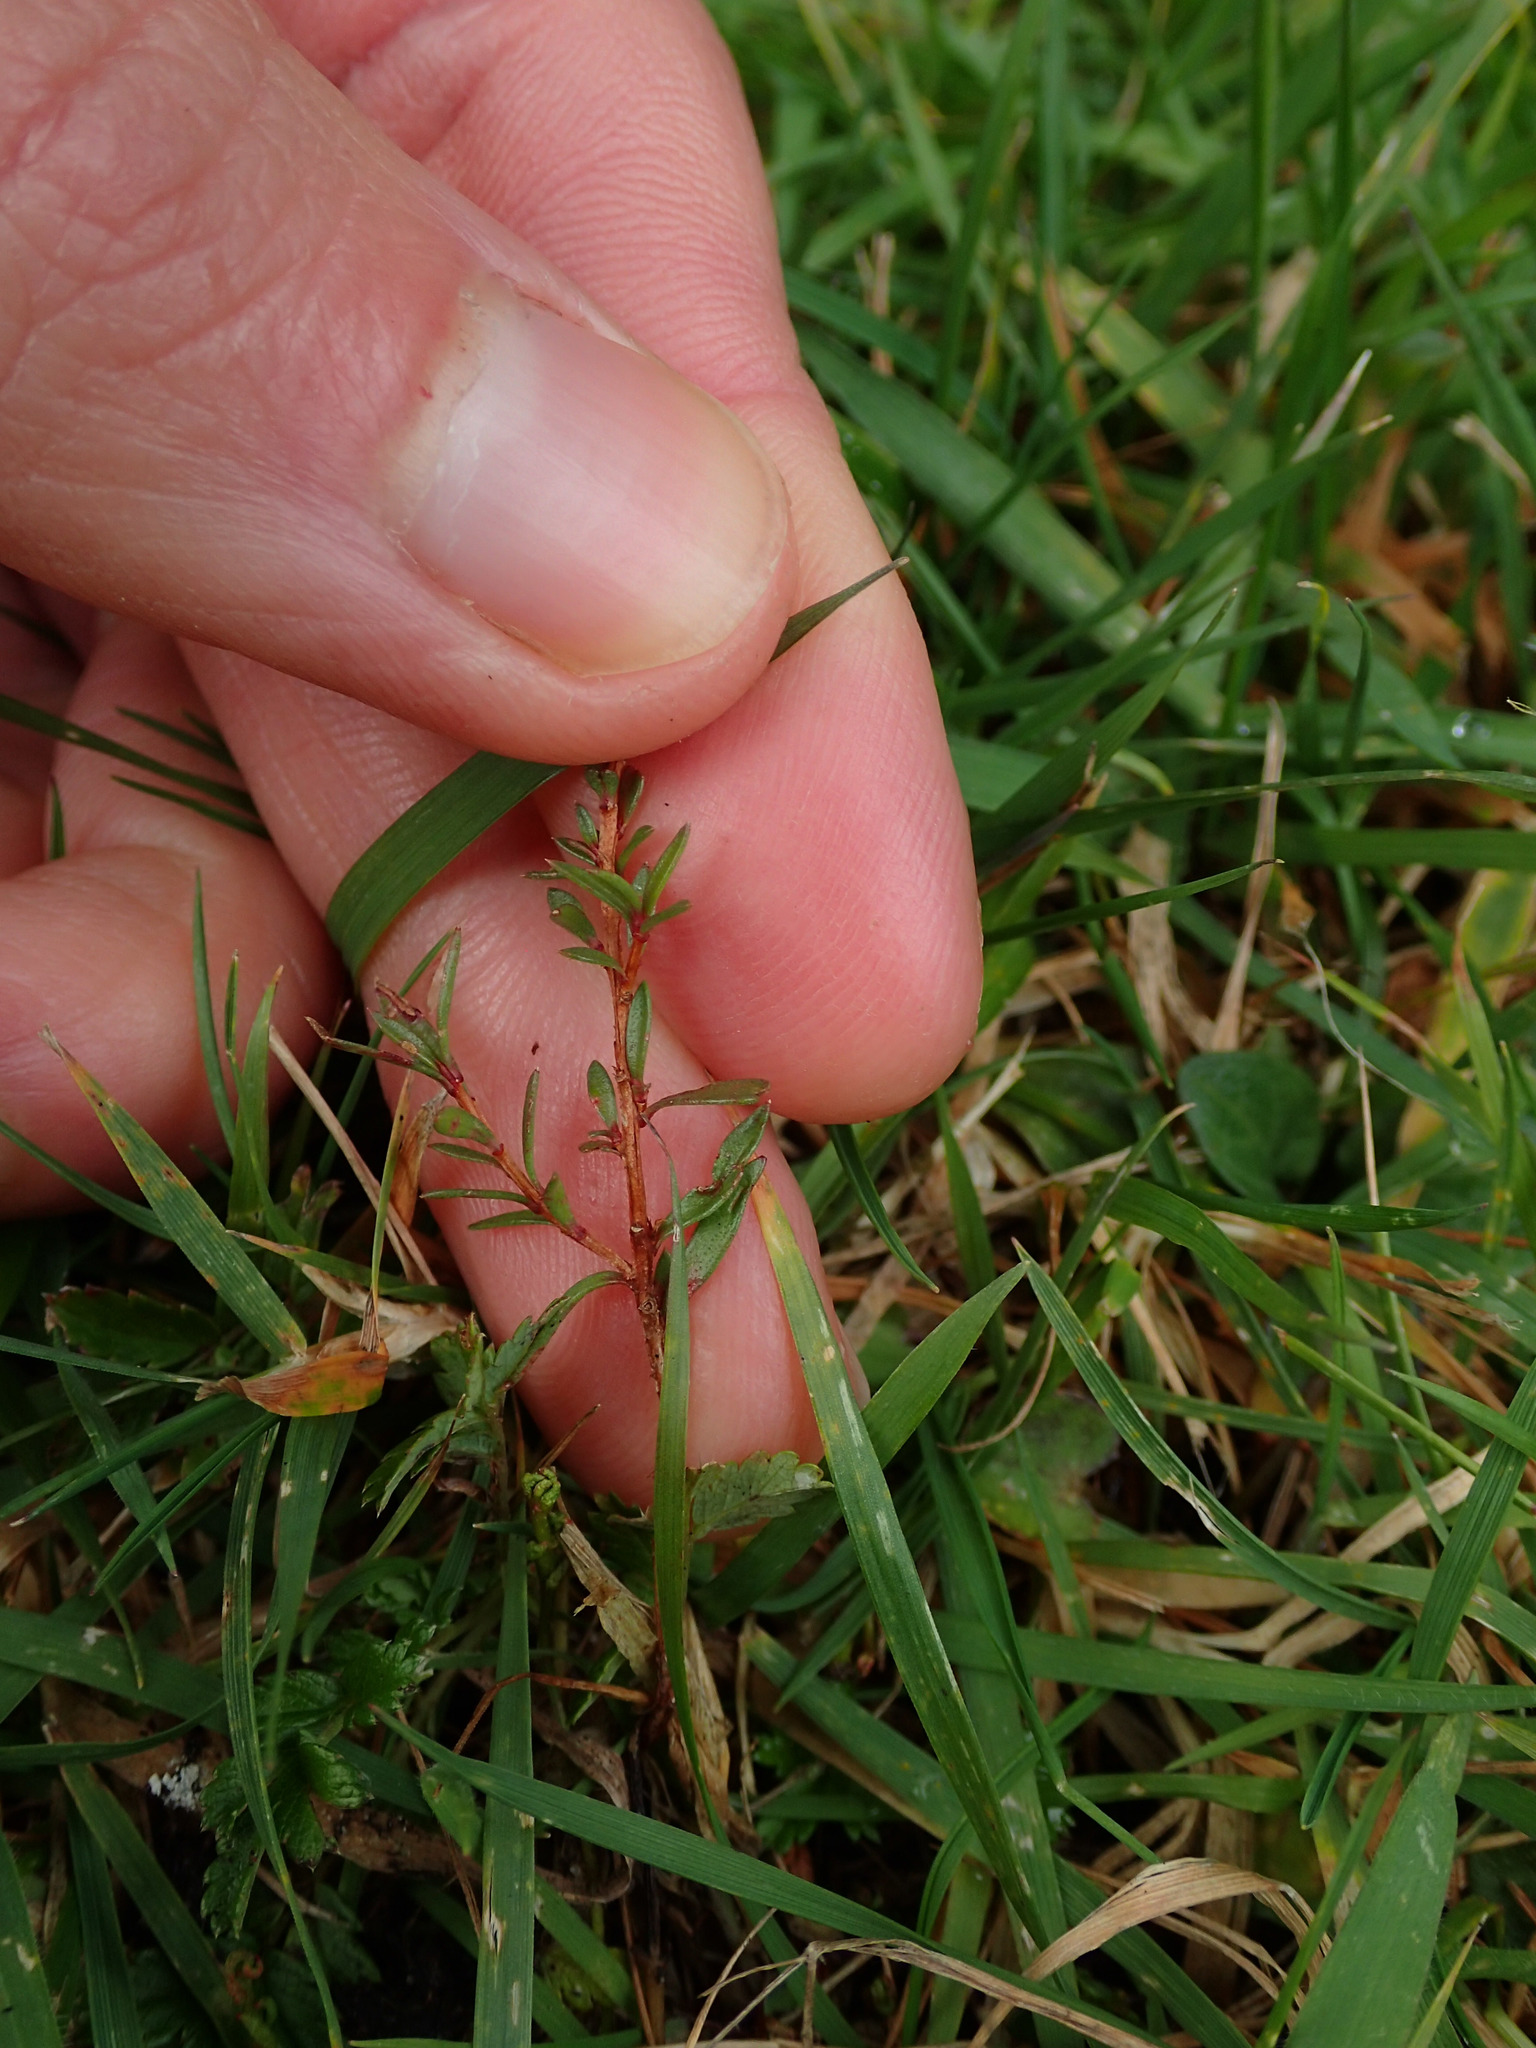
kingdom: Plantae
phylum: Tracheophyta
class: Magnoliopsida
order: Myrtales
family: Myrtaceae
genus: Leptospermum
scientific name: Leptospermum scoparium
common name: Broom tea-tree
